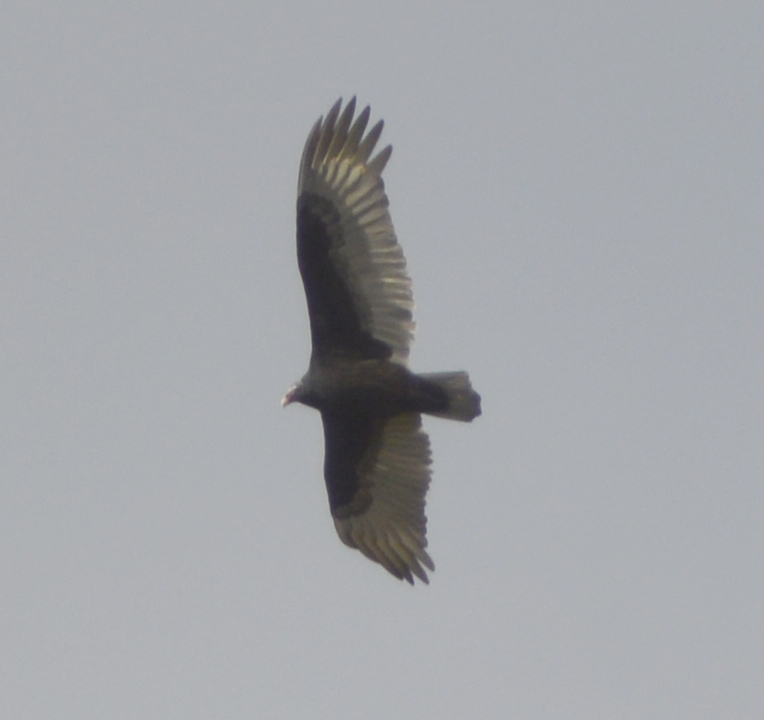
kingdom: Animalia
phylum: Chordata
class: Aves
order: Accipitriformes
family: Cathartidae
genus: Cathartes
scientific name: Cathartes aura
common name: Turkey vulture
